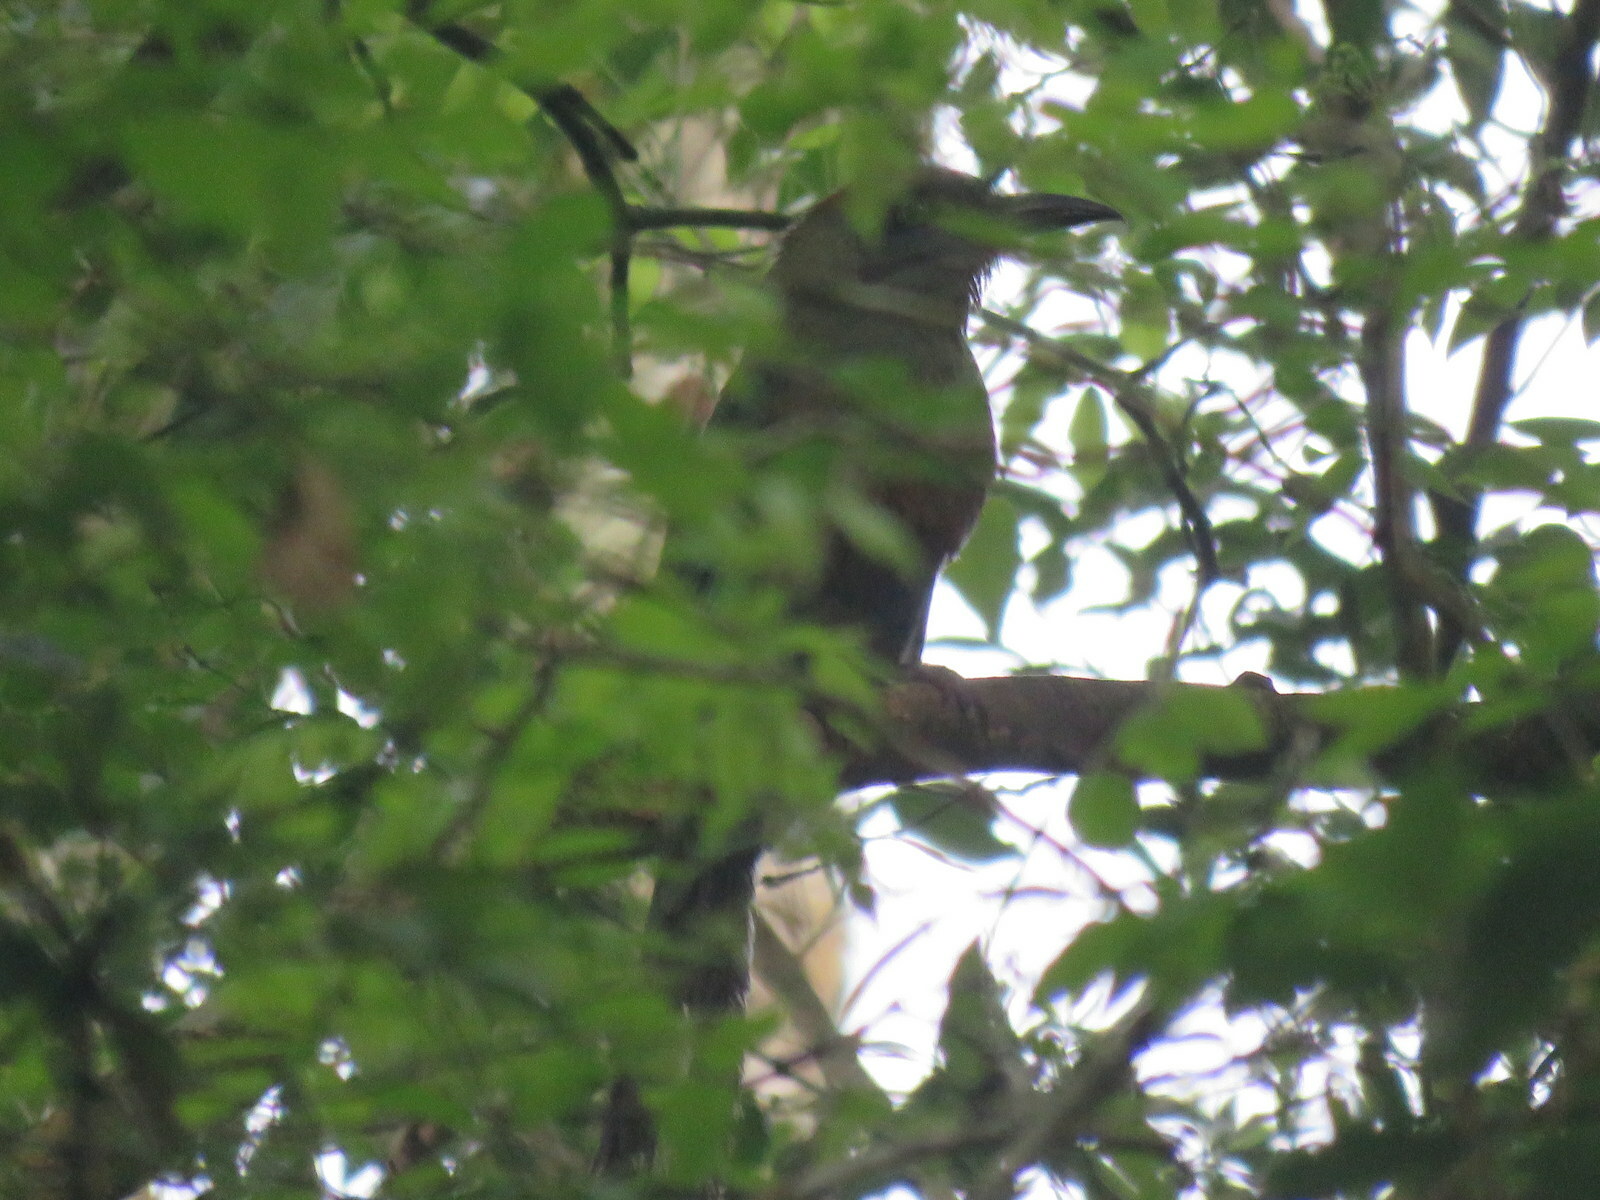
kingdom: Animalia
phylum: Chordata
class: Aves
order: Coraciiformes
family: Momotidae
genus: Baryphthengus
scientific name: Baryphthengus ruficapillus
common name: Rufous-capped motmot
